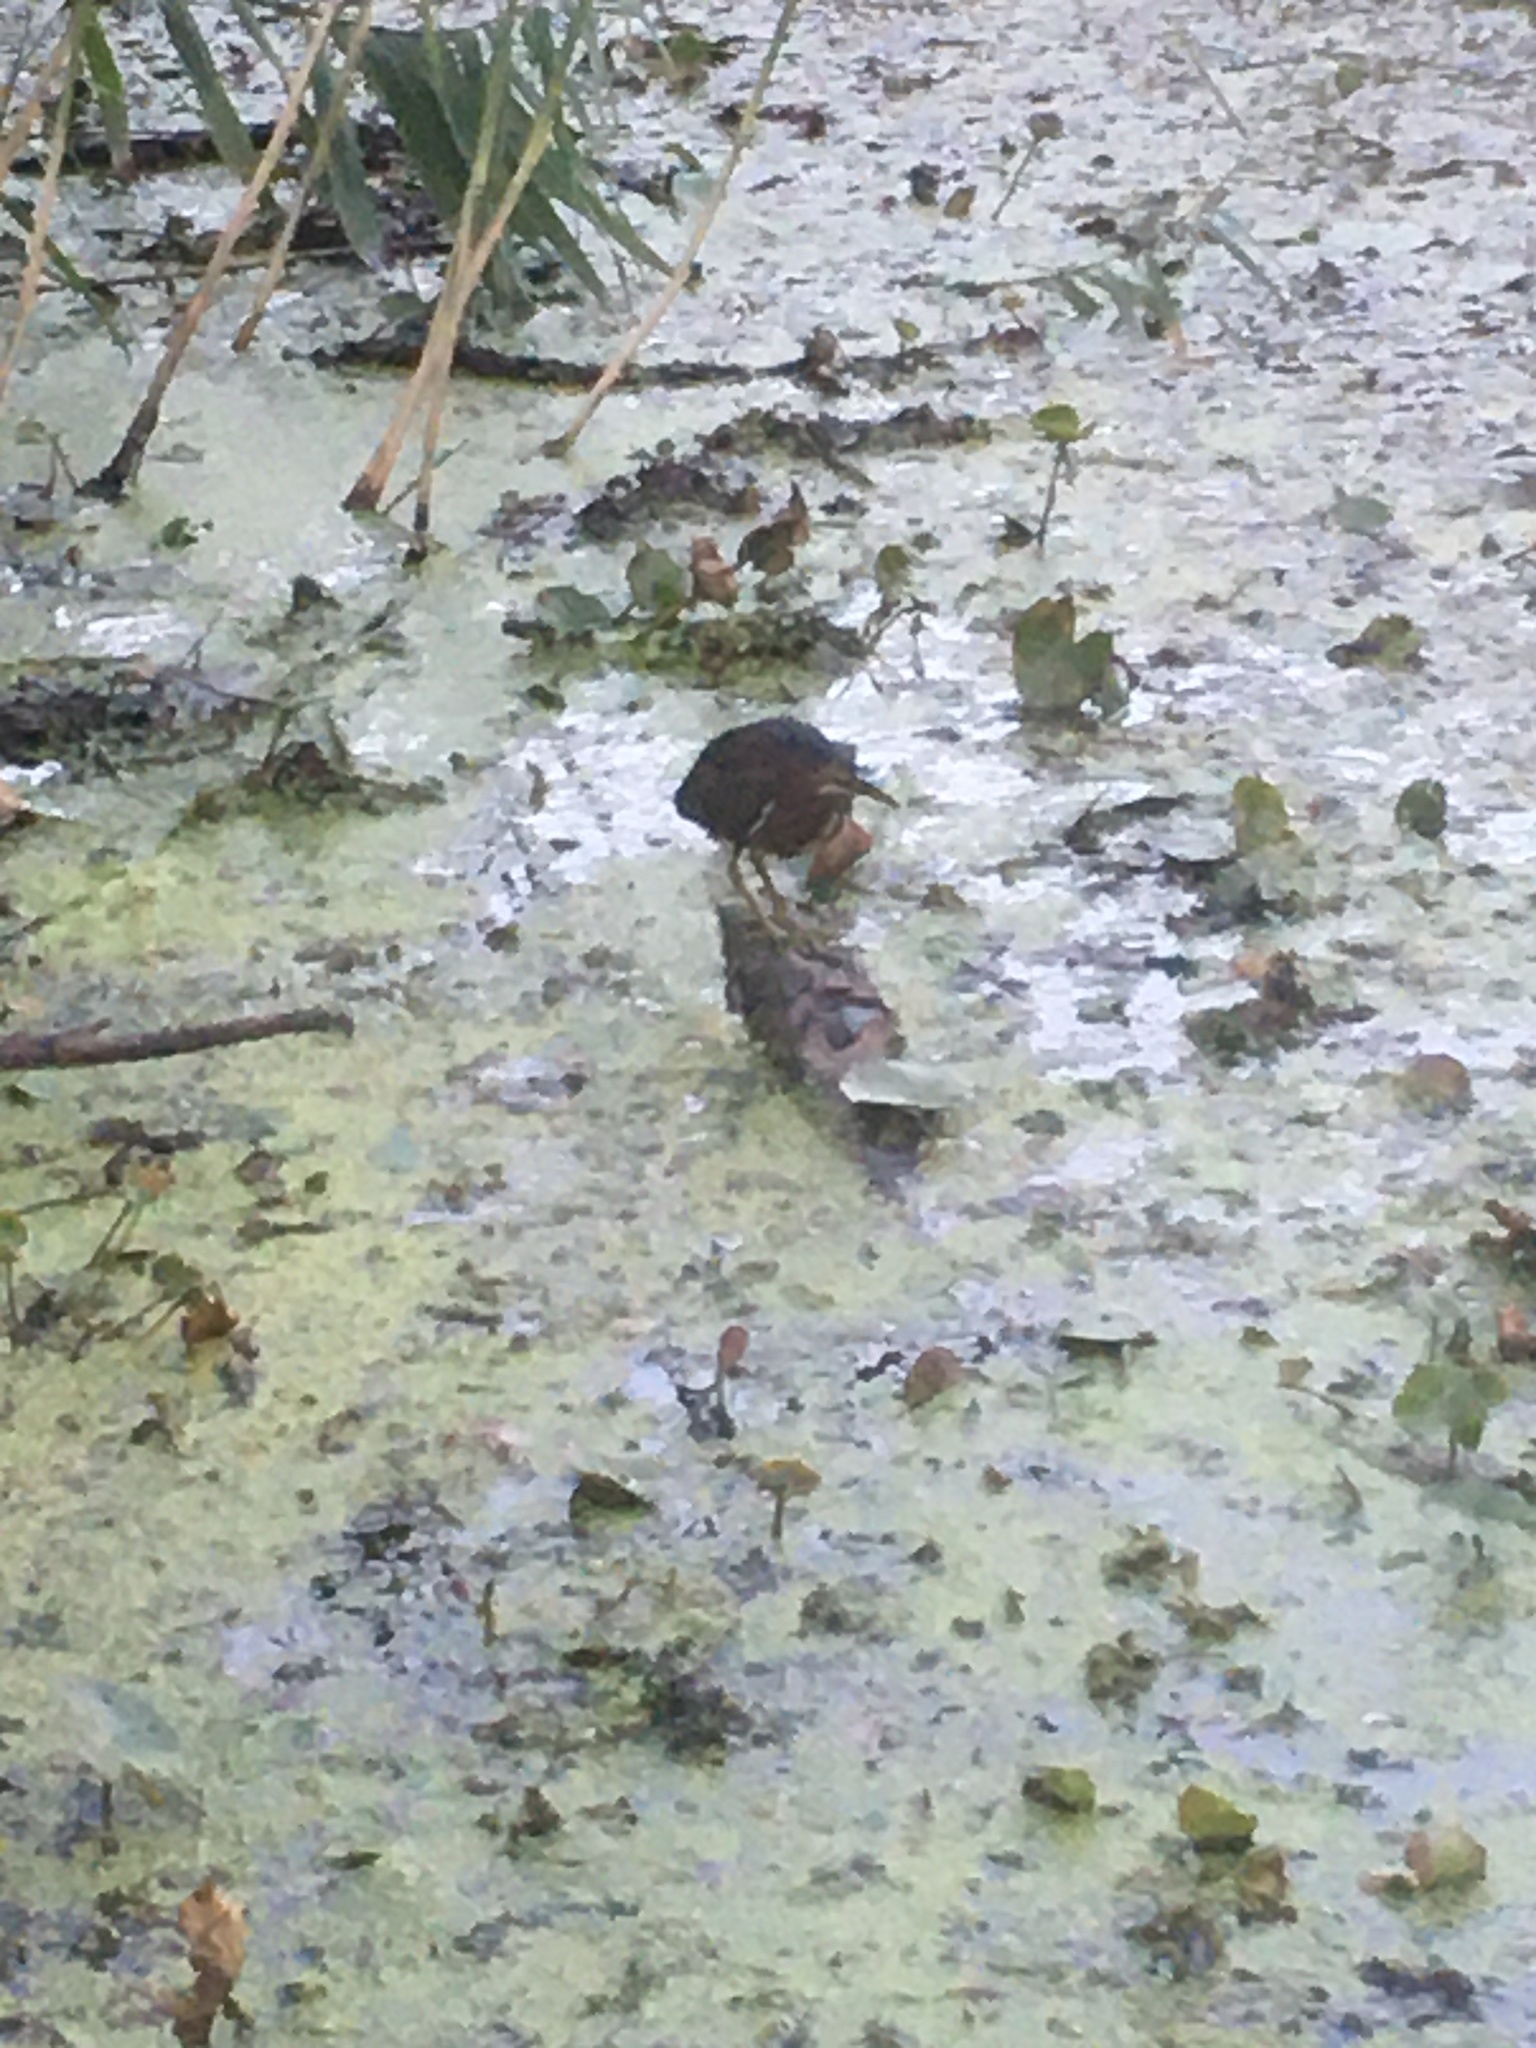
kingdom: Animalia
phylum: Chordata
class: Aves
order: Pelecaniformes
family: Ardeidae
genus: Butorides
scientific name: Butorides virescens
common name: Green heron
